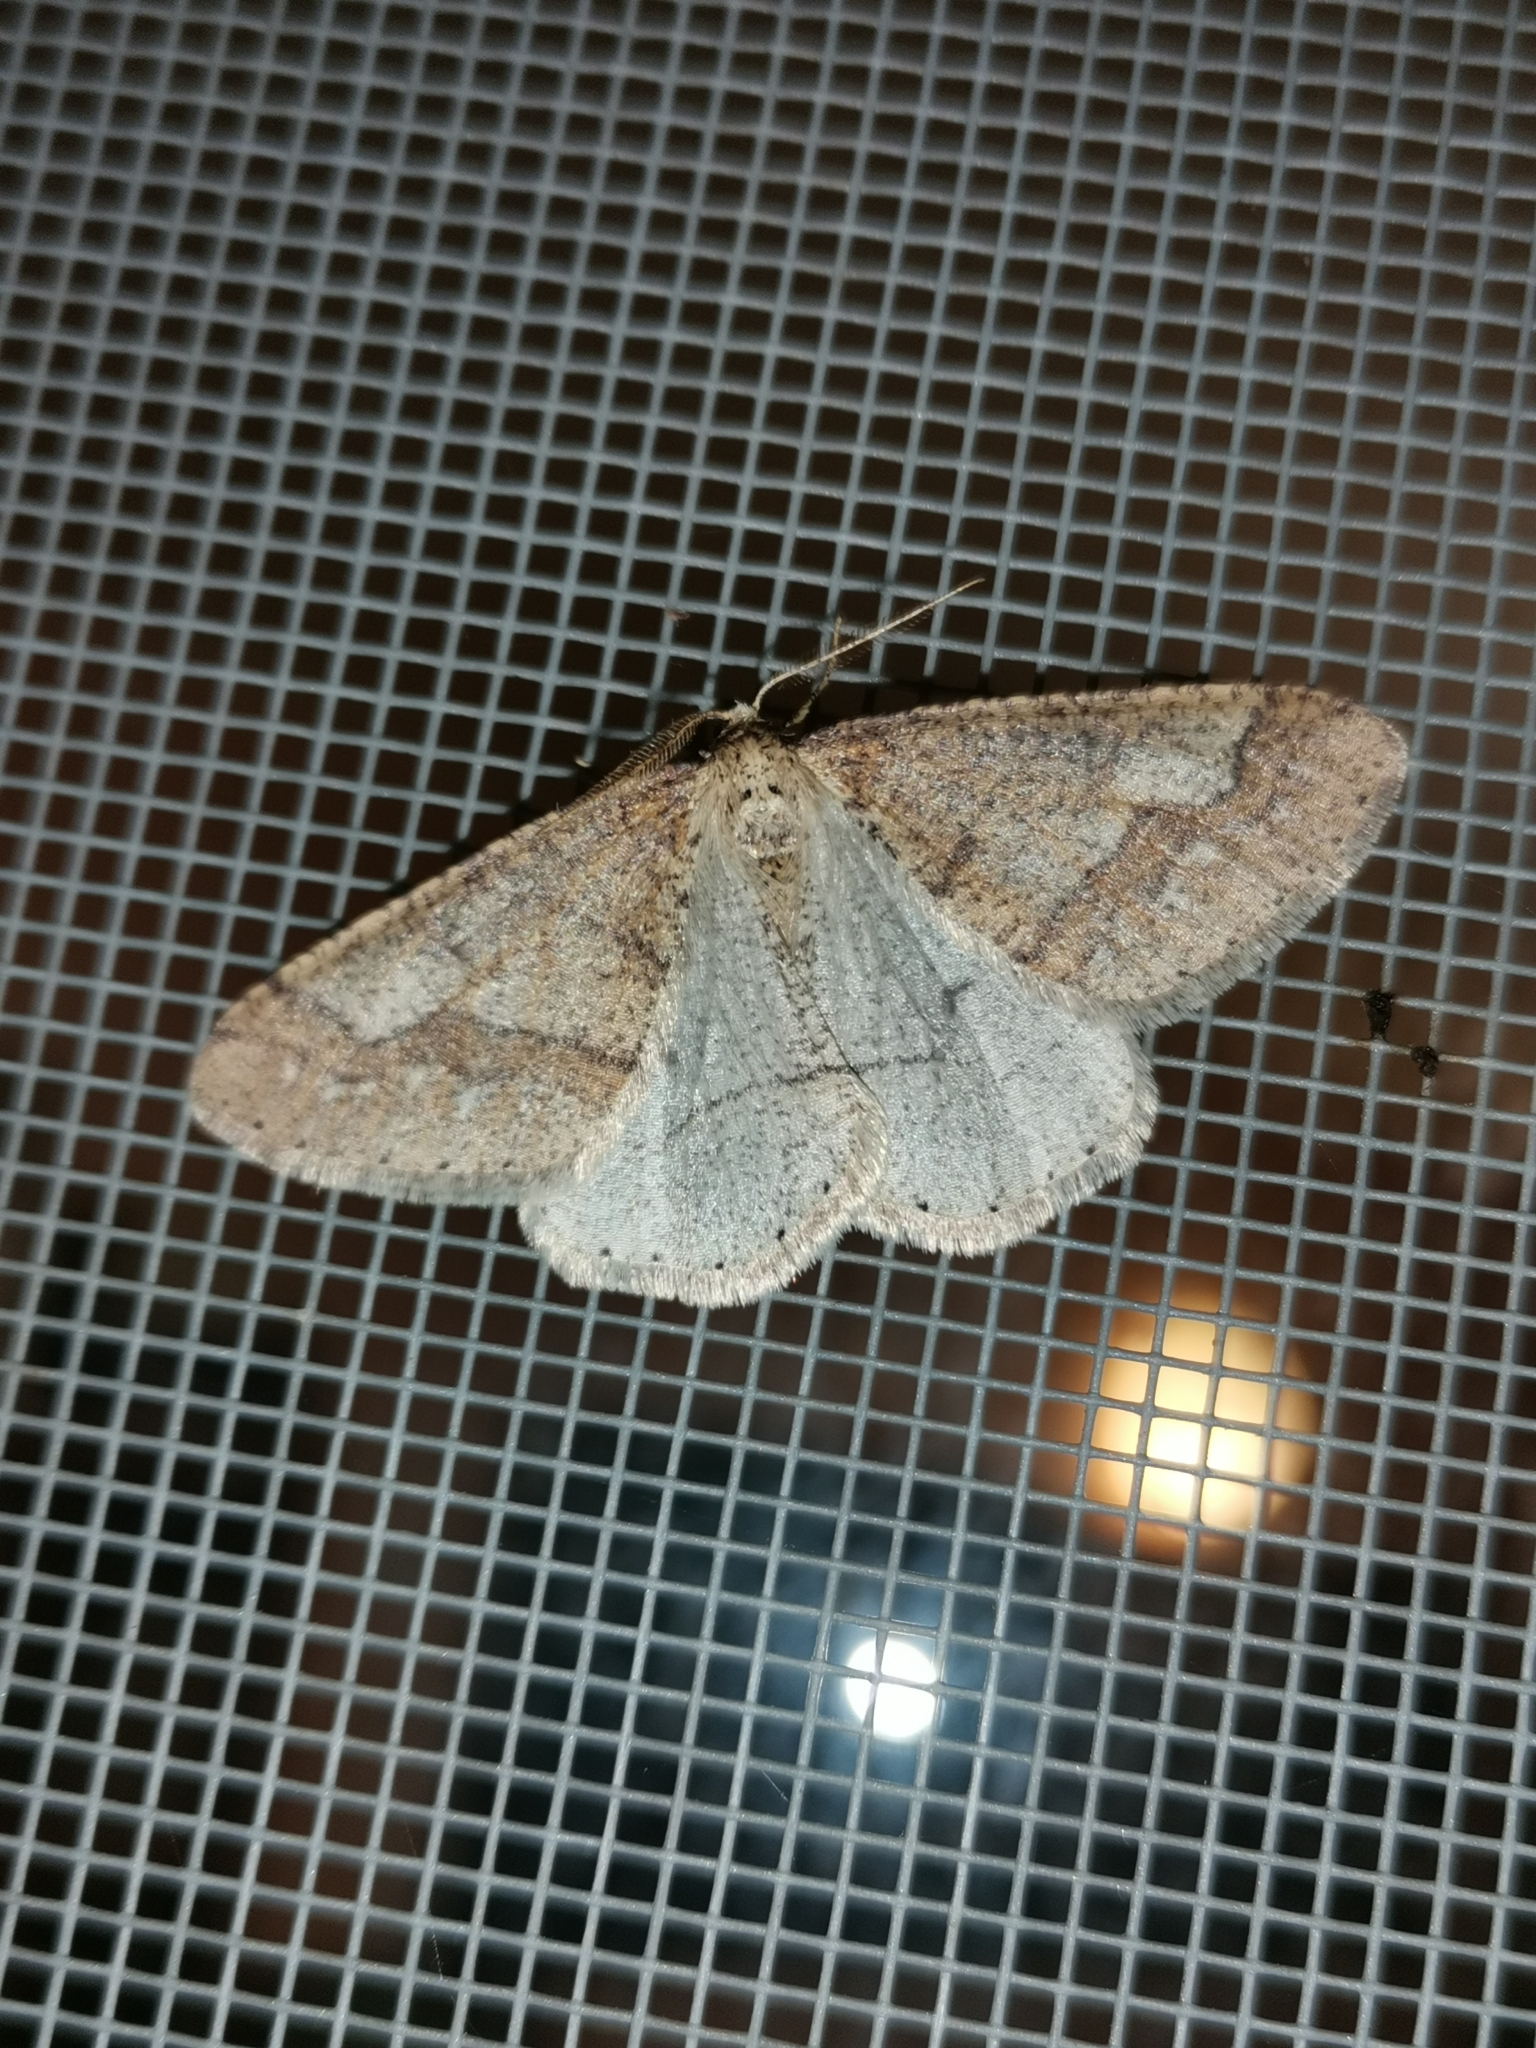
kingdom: Animalia
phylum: Arthropoda
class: Insecta
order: Lepidoptera
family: Geometridae
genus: Agriopis
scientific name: Agriopis marginaria
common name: Dotted border
